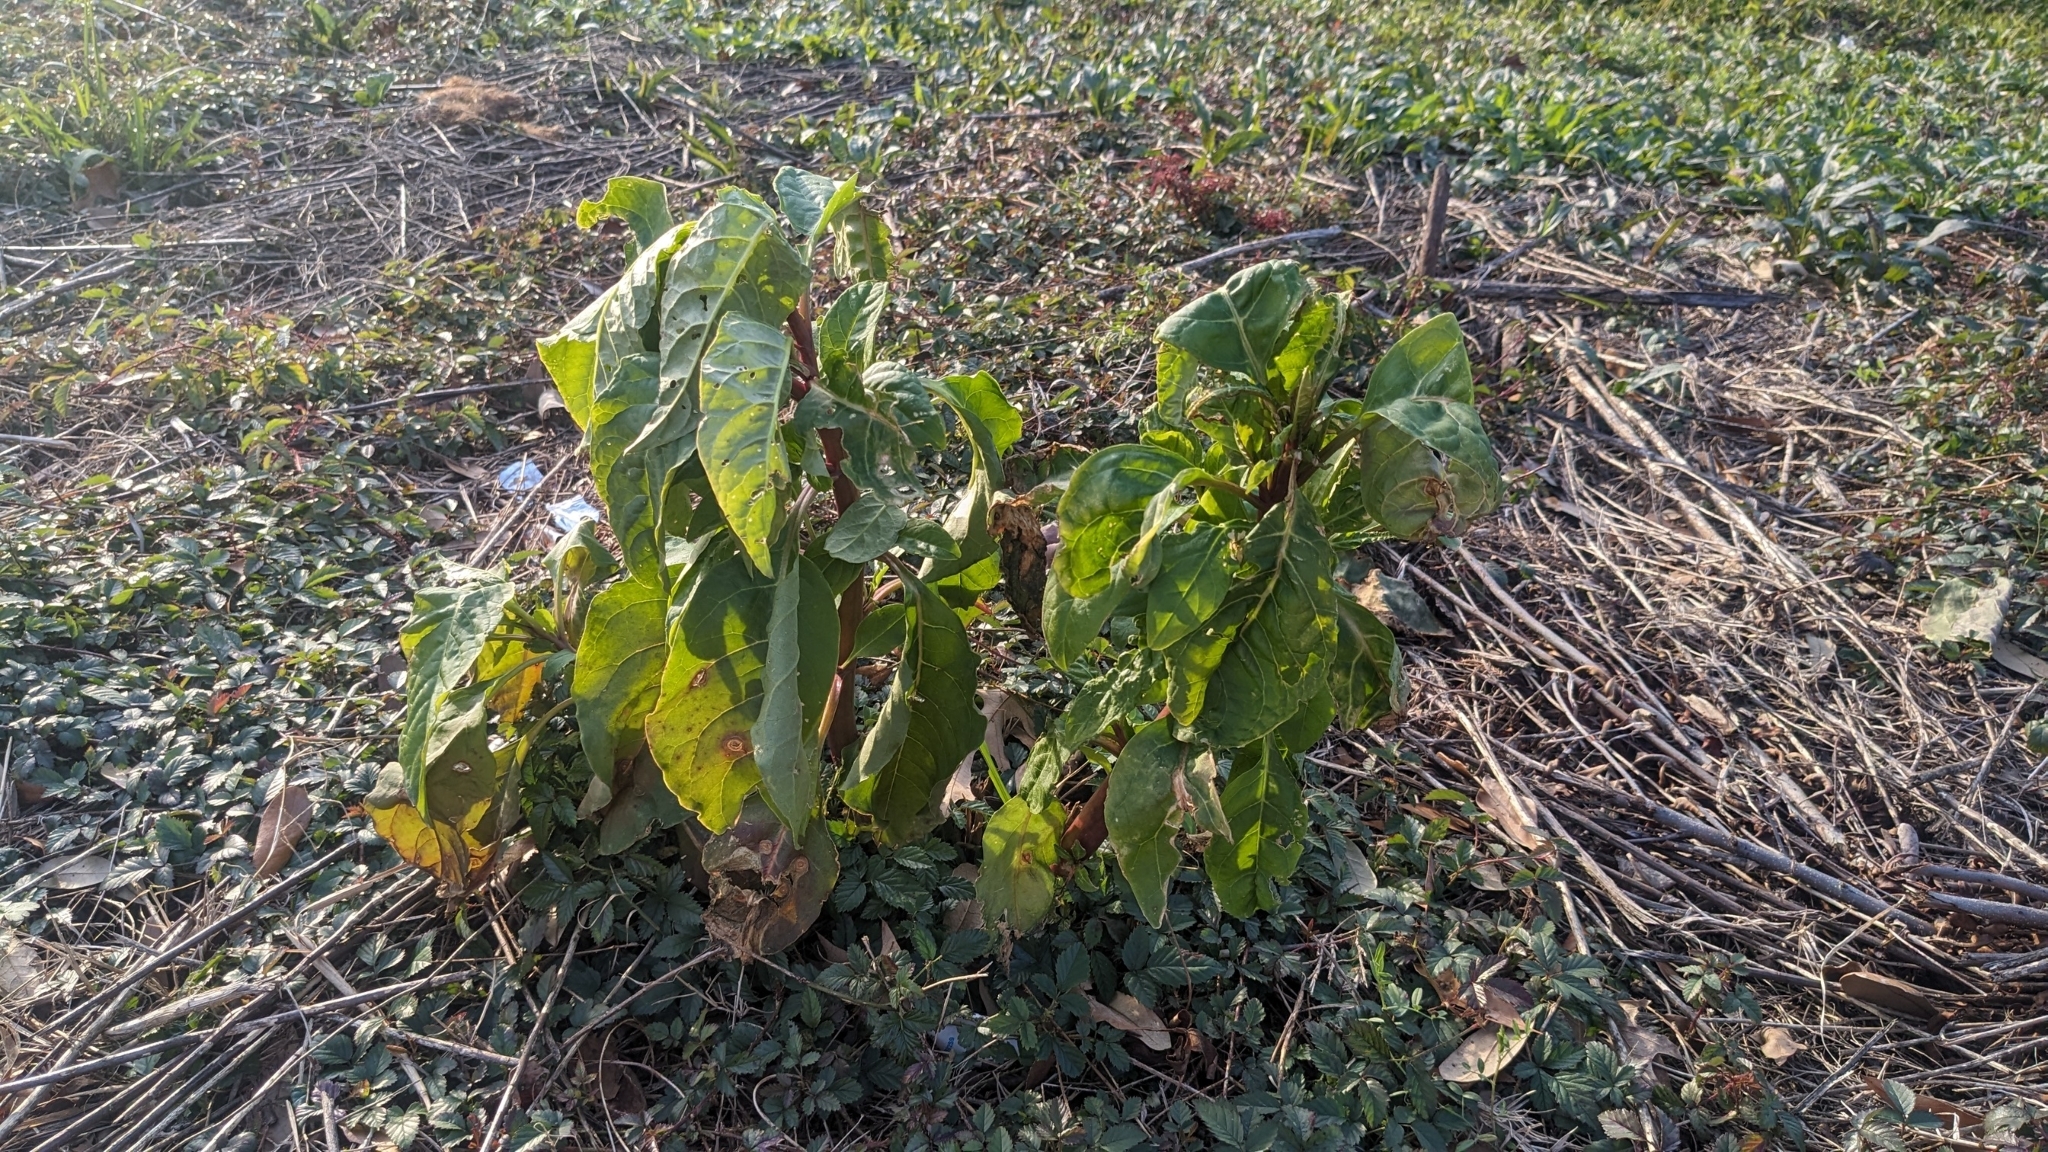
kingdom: Plantae
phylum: Tracheophyta
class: Magnoliopsida
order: Caryophyllales
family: Phytolaccaceae
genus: Phytolacca
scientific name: Phytolacca americana
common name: American pokeweed
